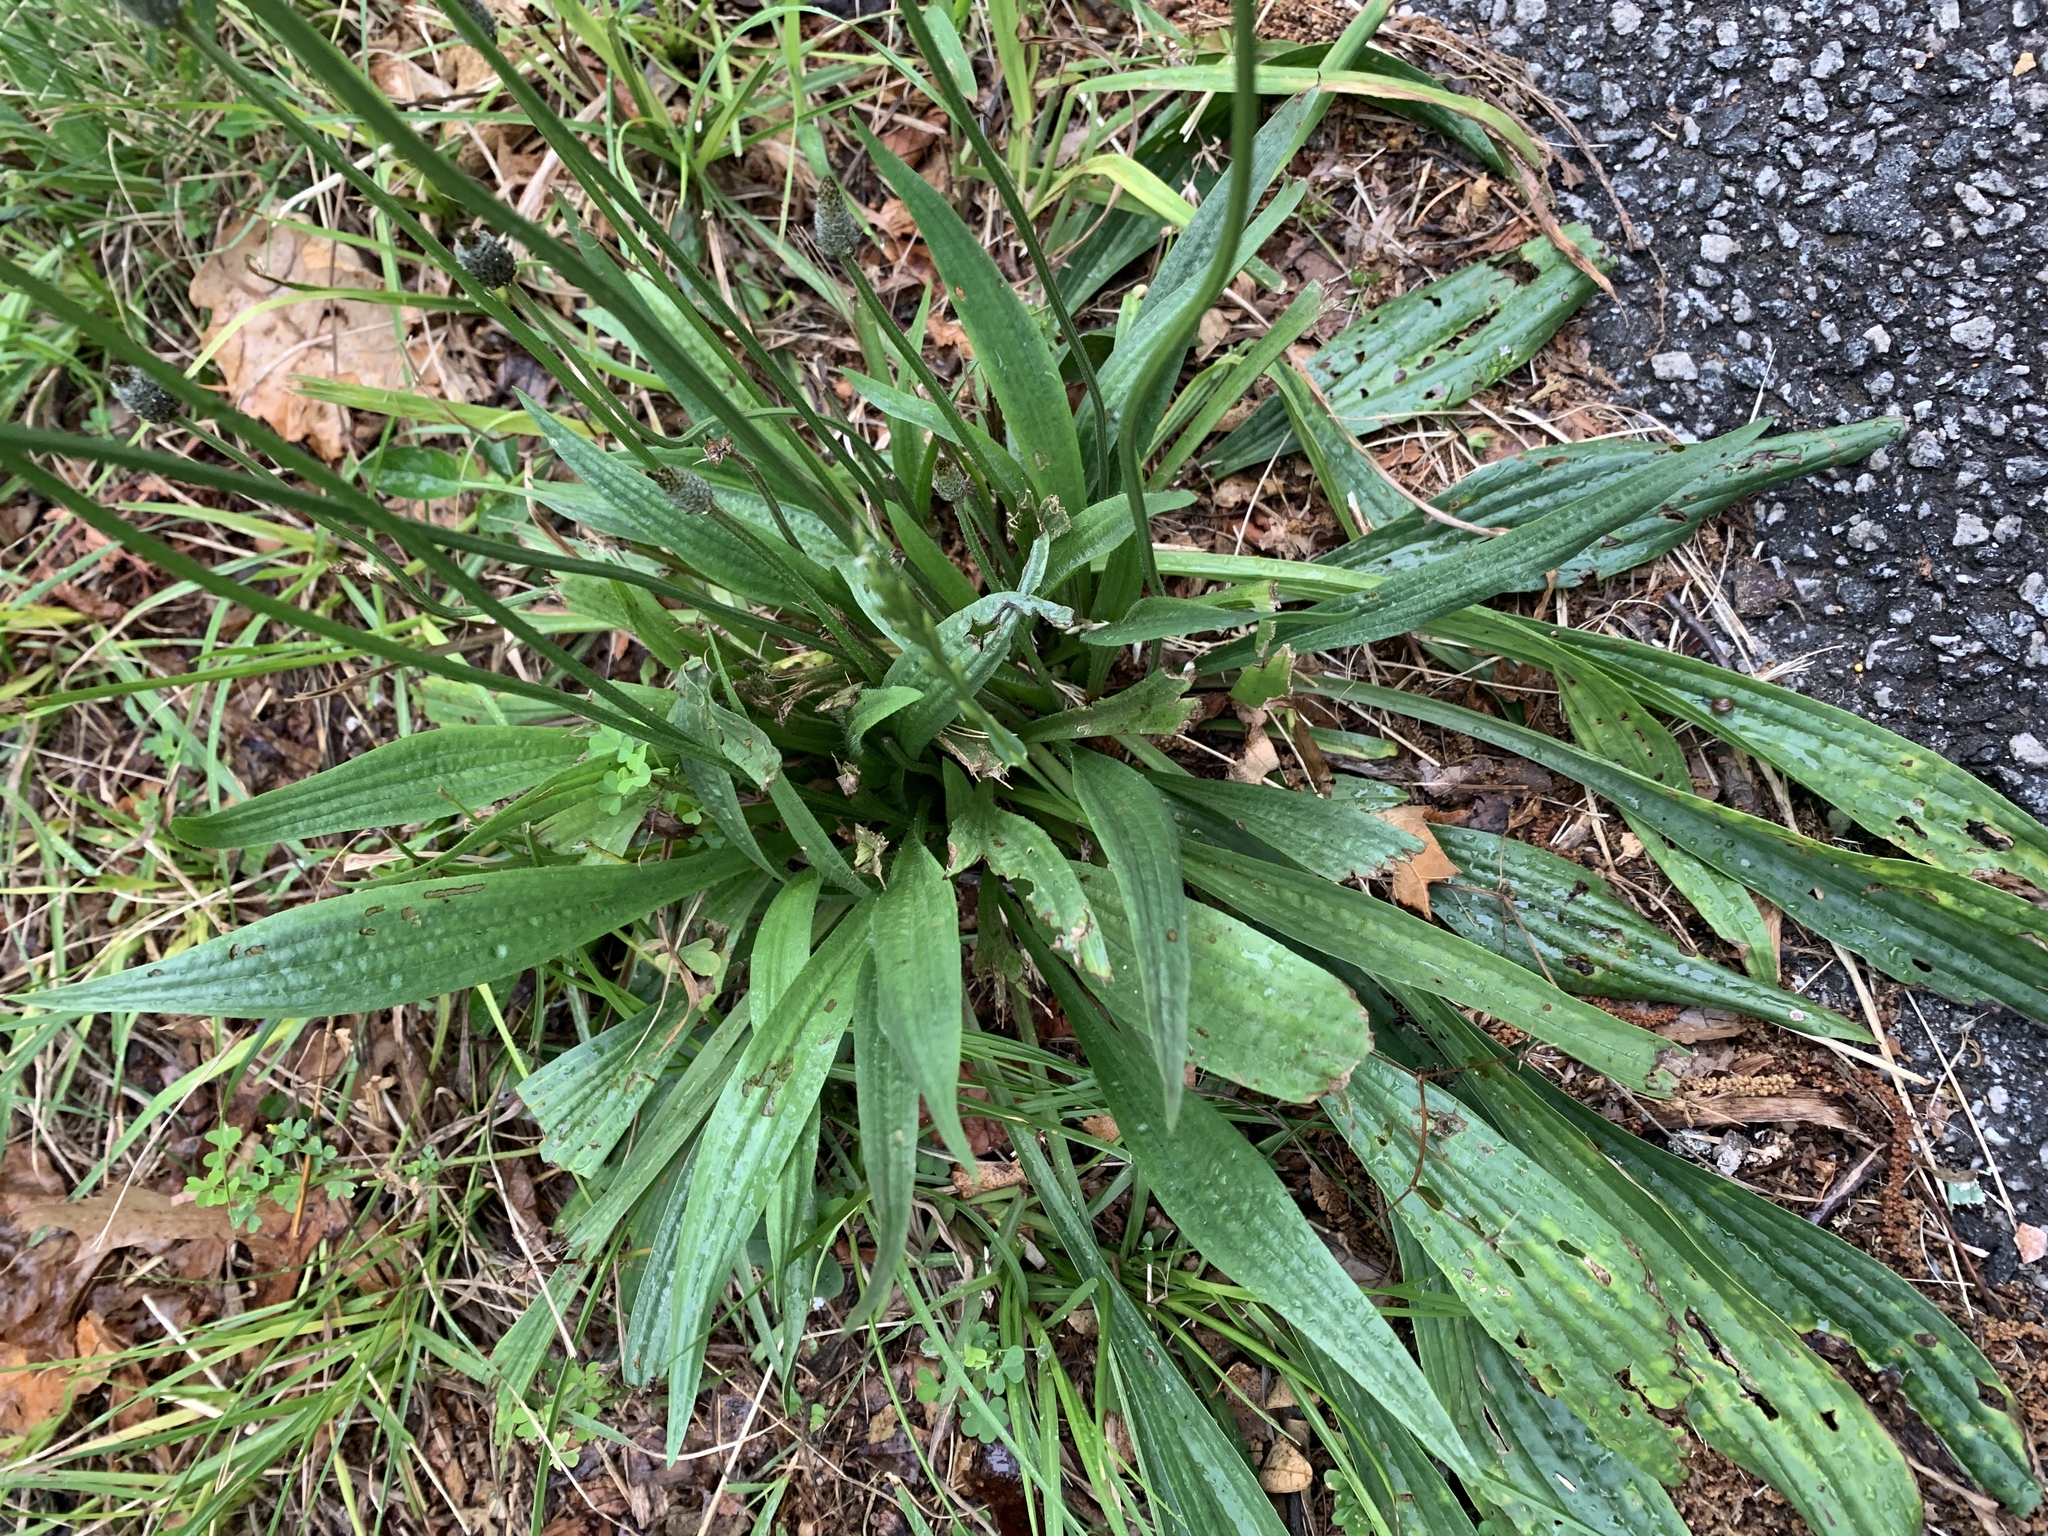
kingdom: Plantae
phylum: Tracheophyta
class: Magnoliopsida
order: Lamiales
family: Plantaginaceae
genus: Plantago
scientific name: Plantago lanceolata
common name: Ribwort plantain
